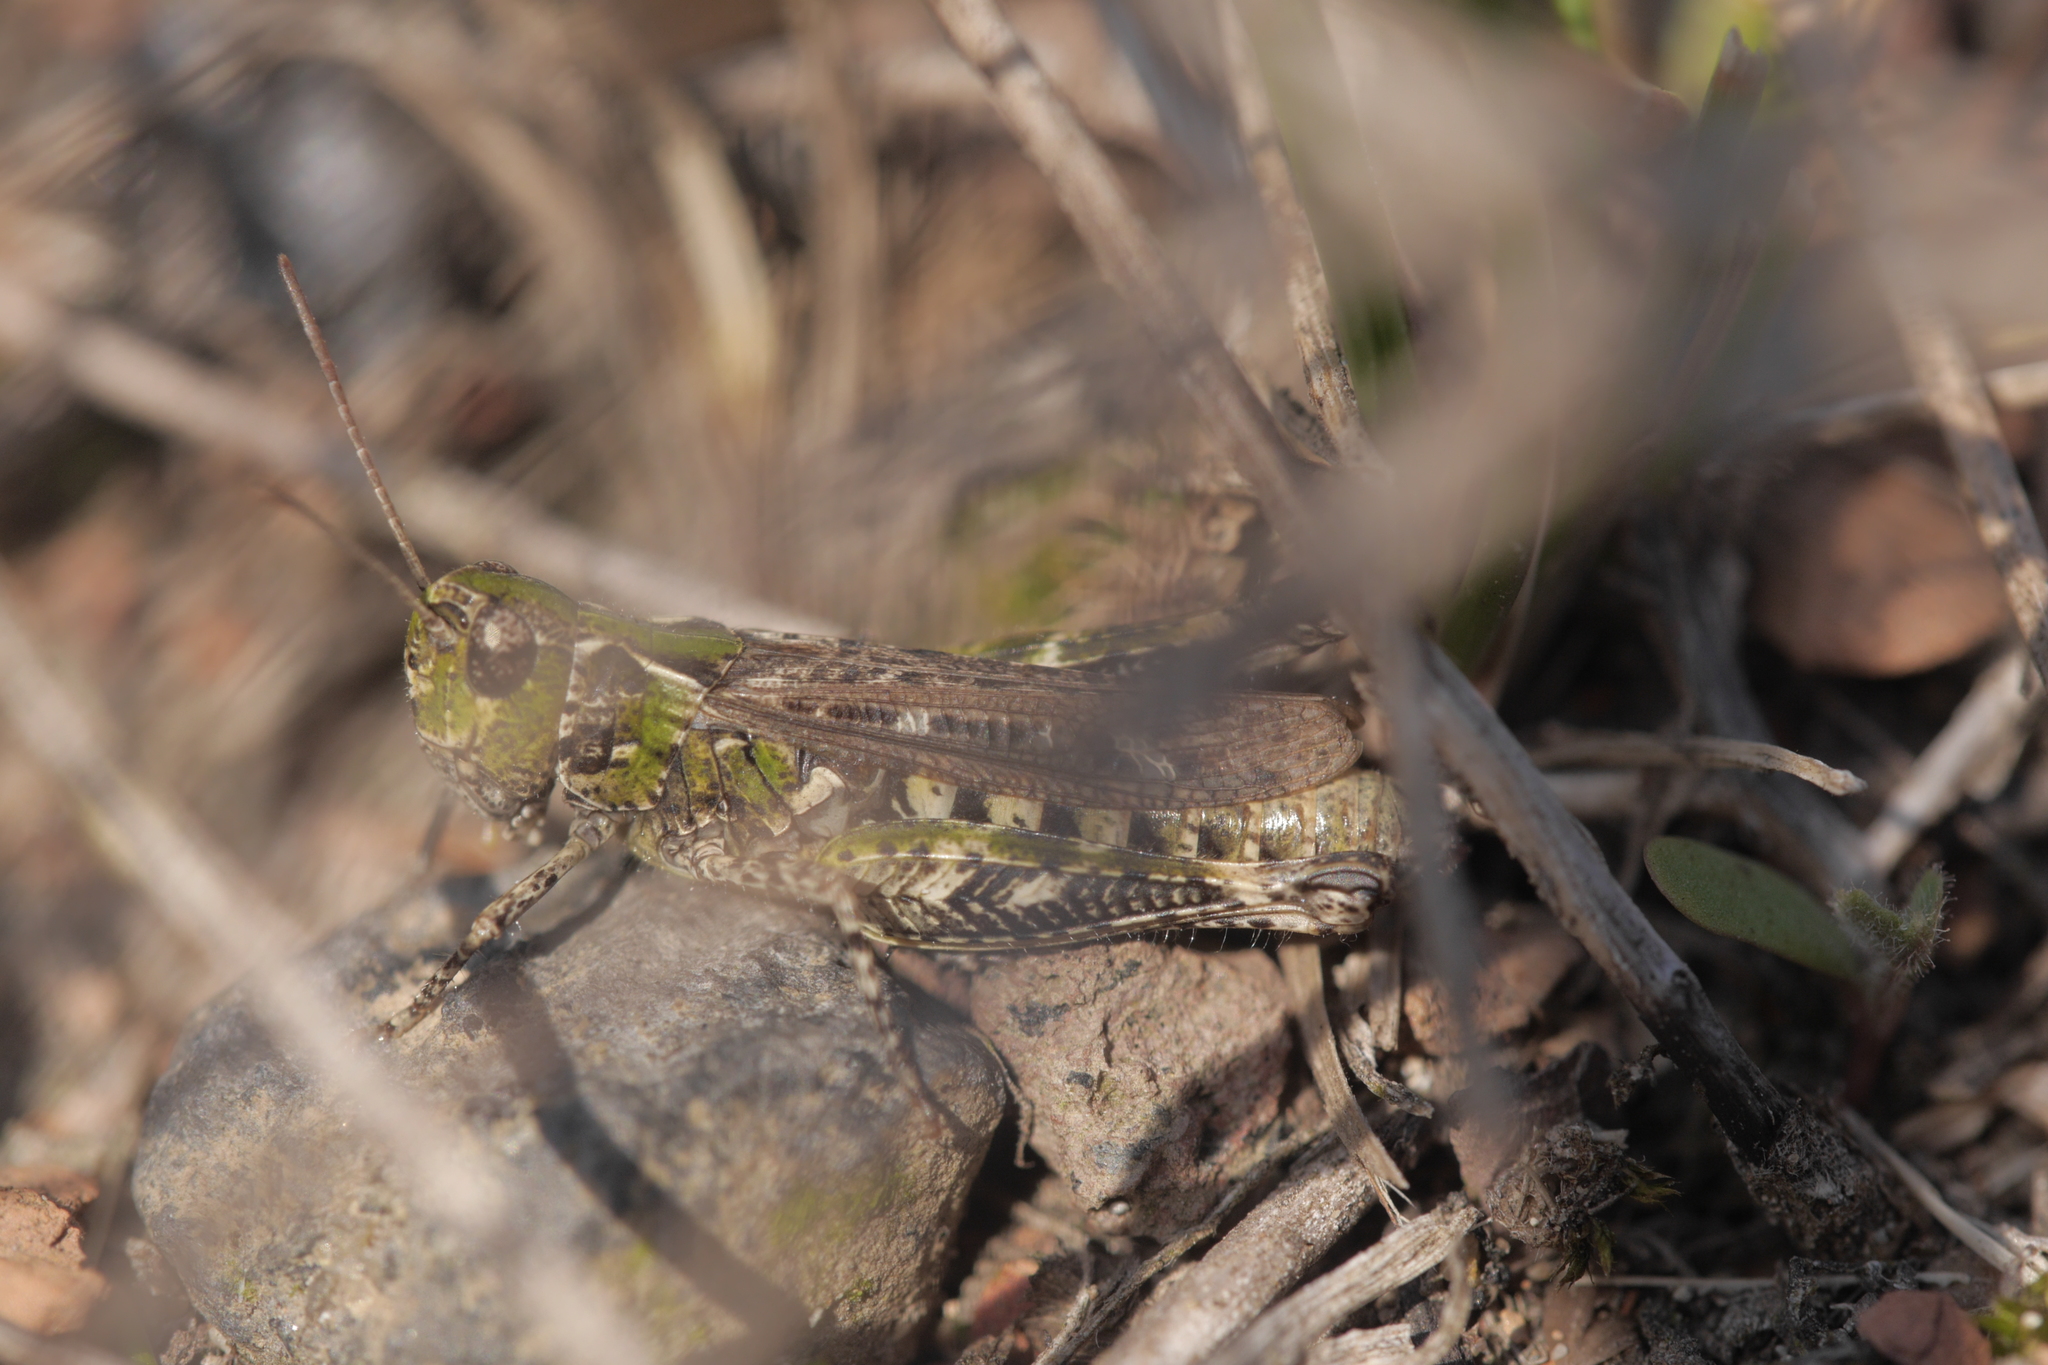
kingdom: Animalia
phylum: Arthropoda
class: Insecta
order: Orthoptera
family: Acrididae
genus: Myrmeleotettix
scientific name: Myrmeleotettix maculatus
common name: Mottled grasshopper
